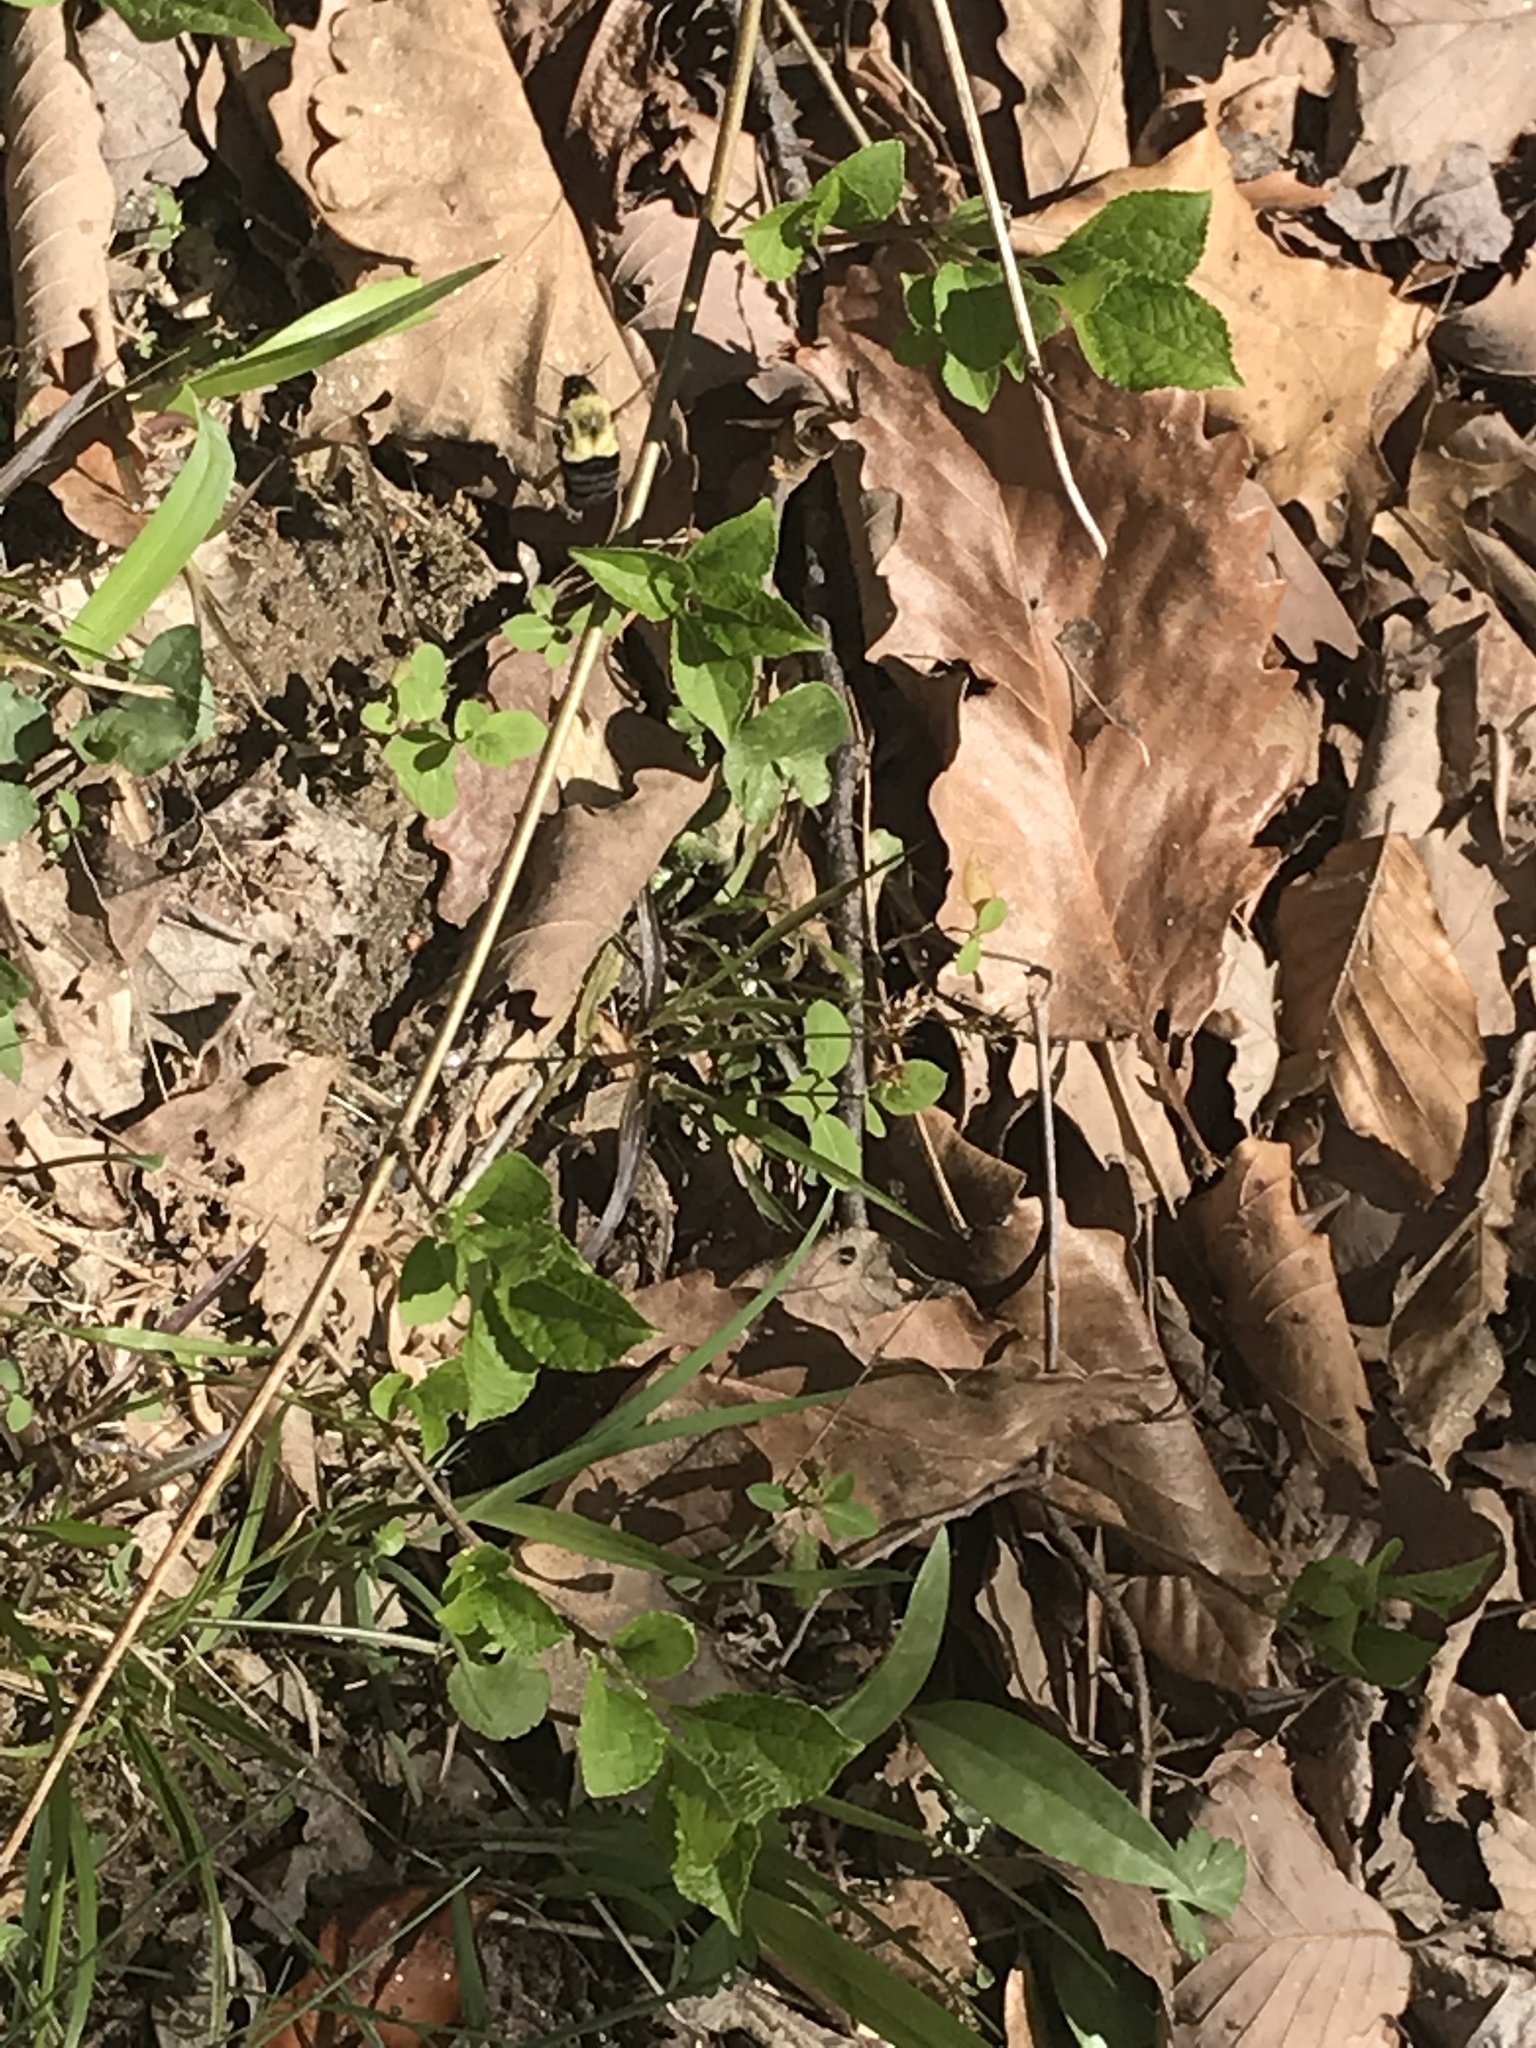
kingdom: Plantae
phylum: Tracheophyta
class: Magnoliopsida
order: Celastrales
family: Celastraceae
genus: Celastrus
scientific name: Celastrus orbiculatus
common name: Oriental bittersweet
